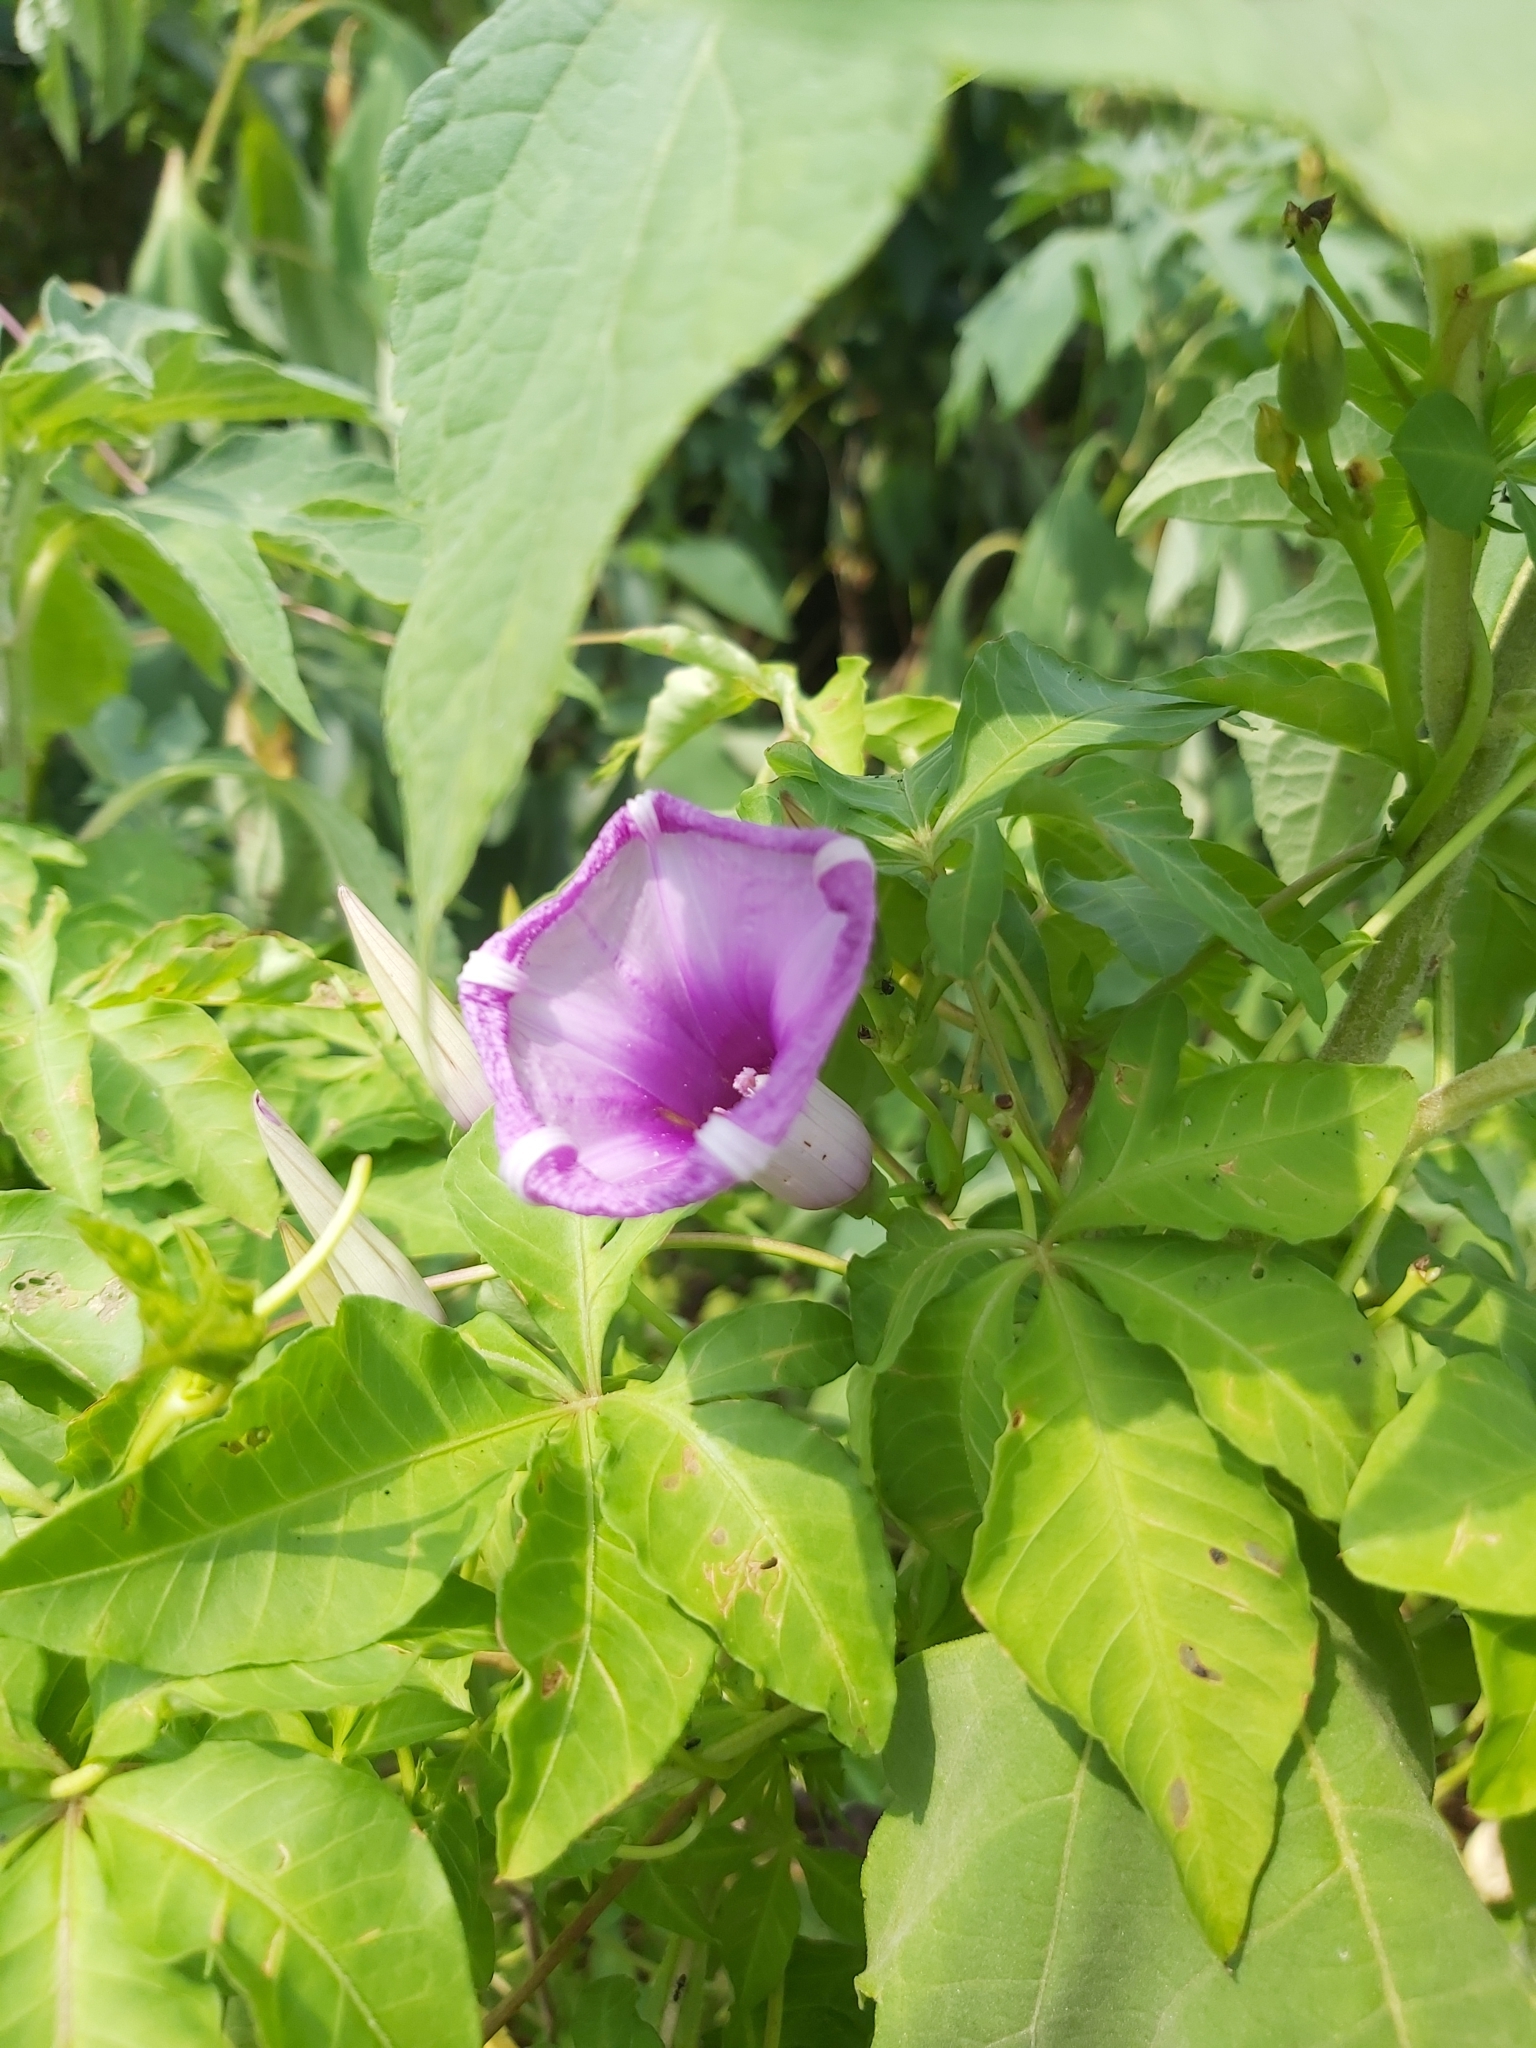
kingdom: Plantae
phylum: Tracheophyta
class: Magnoliopsida
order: Solanales
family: Convolvulaceae
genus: Ipomoea
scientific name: Ipomoea cairica
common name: Mile a minute vine
